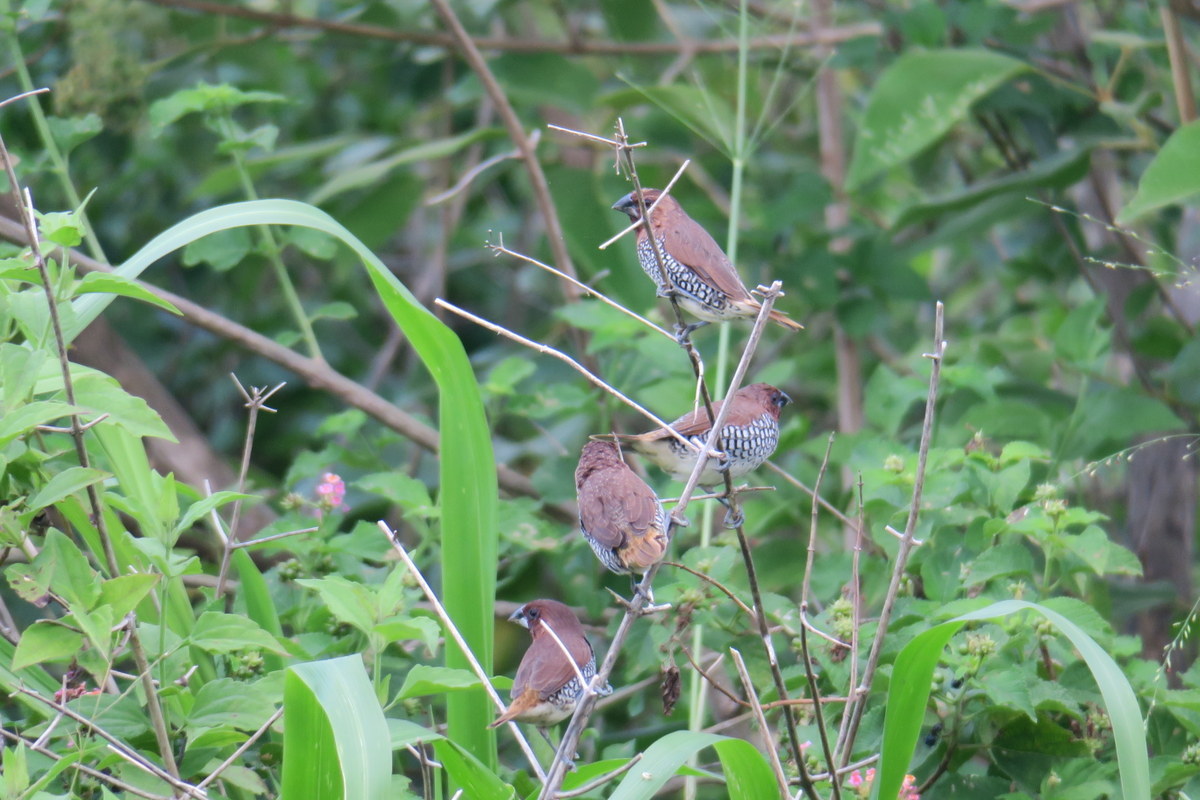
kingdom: Animalia
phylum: Chordata
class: Aves
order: Passeriformes
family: Estrildidae
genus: Lonchura
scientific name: Lonchura punctulata
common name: Scaly-breasted munia
